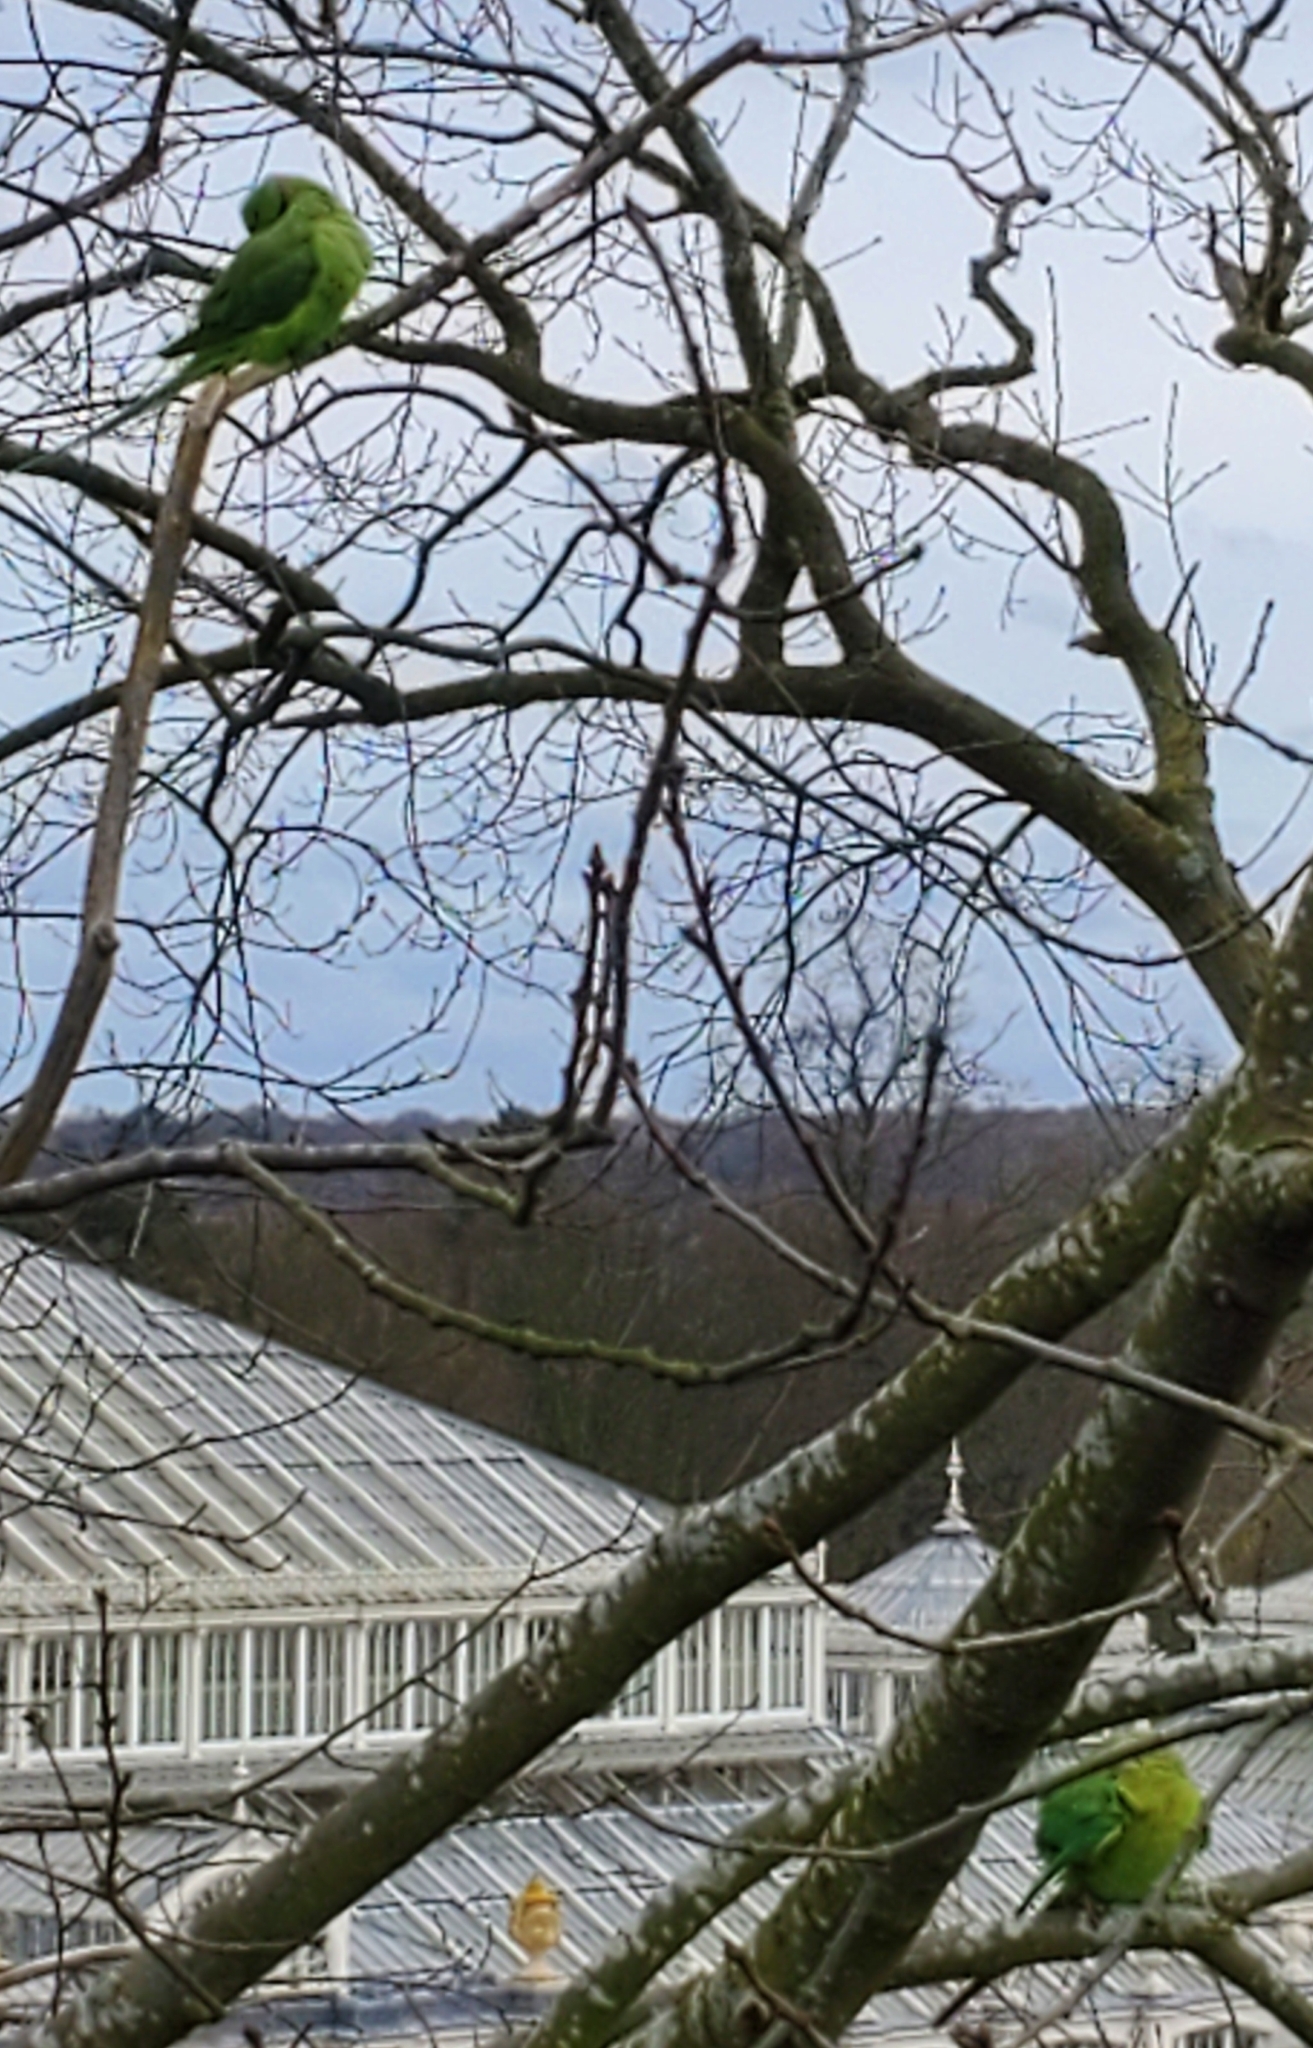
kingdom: Animalia
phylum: Chordata
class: Aves
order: Psittaciformes
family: Psittacidae
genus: Psittacula
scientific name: Psittacula krameri
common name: Rose-ringed parakeet
